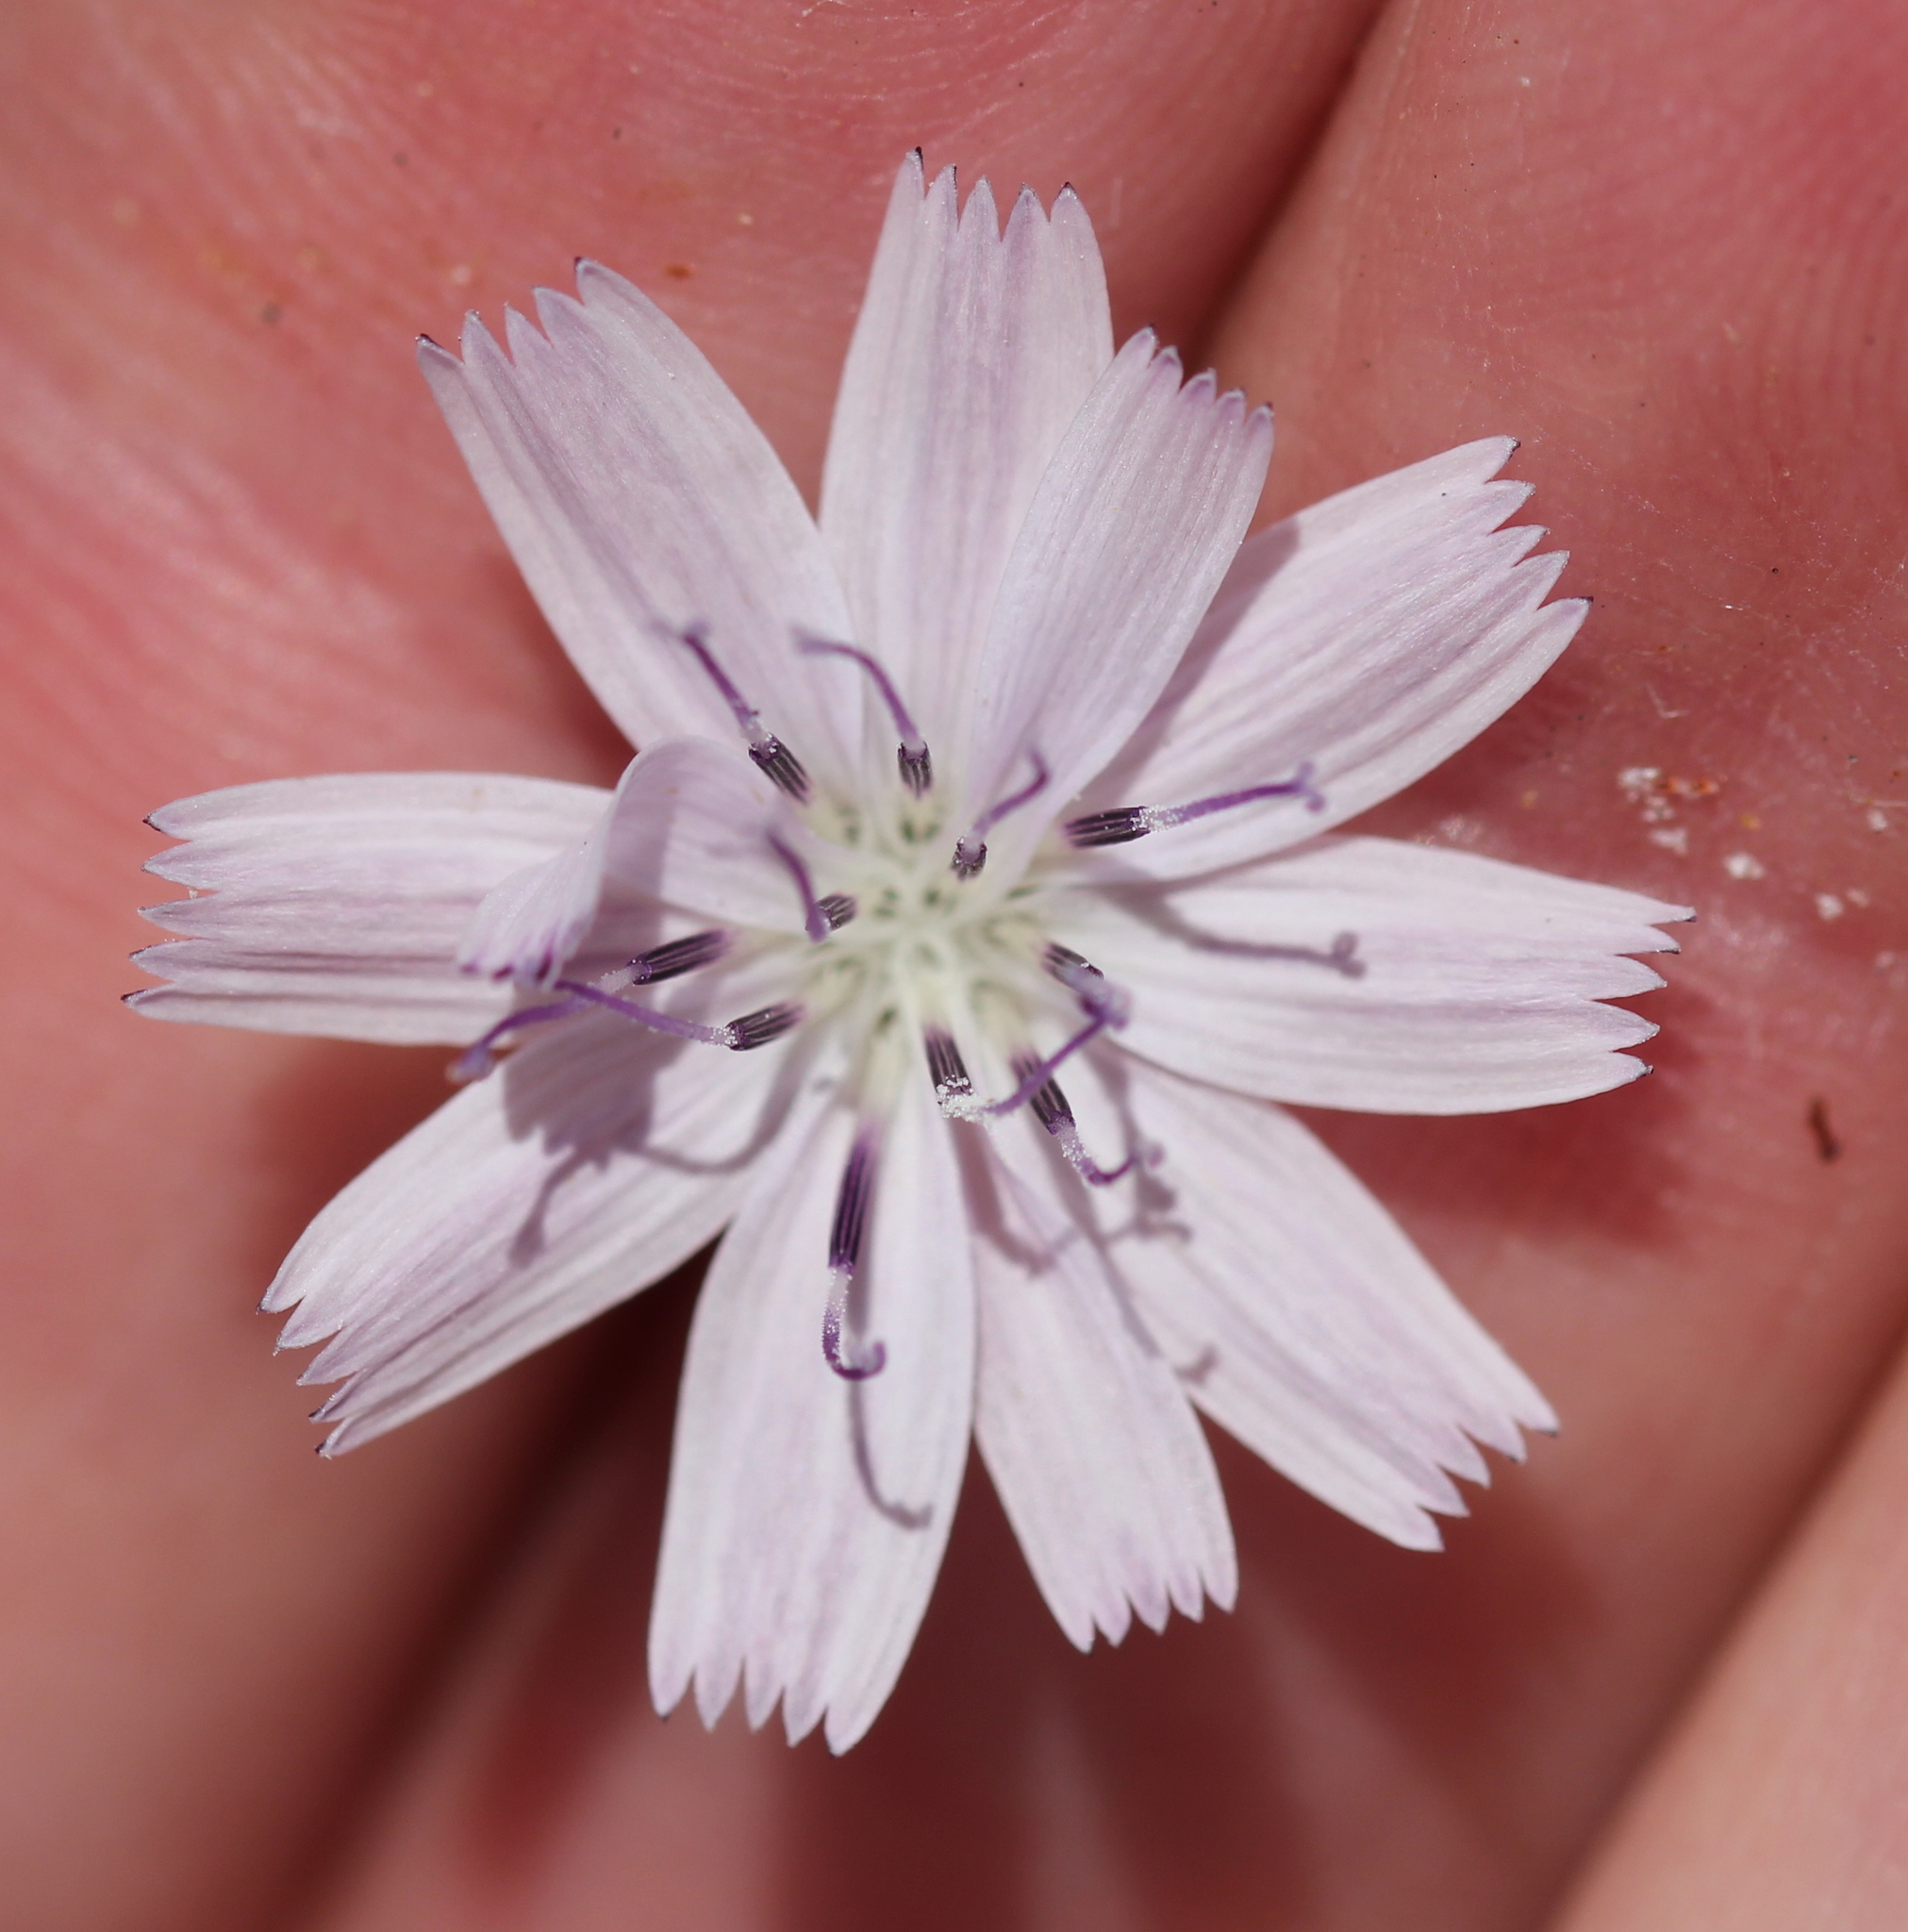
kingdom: Plantae
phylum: Tracheophyta
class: Magnoliopsida
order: Asterales
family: Asteraceae
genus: Stephanomeria
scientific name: Stephanomeria diegensis
